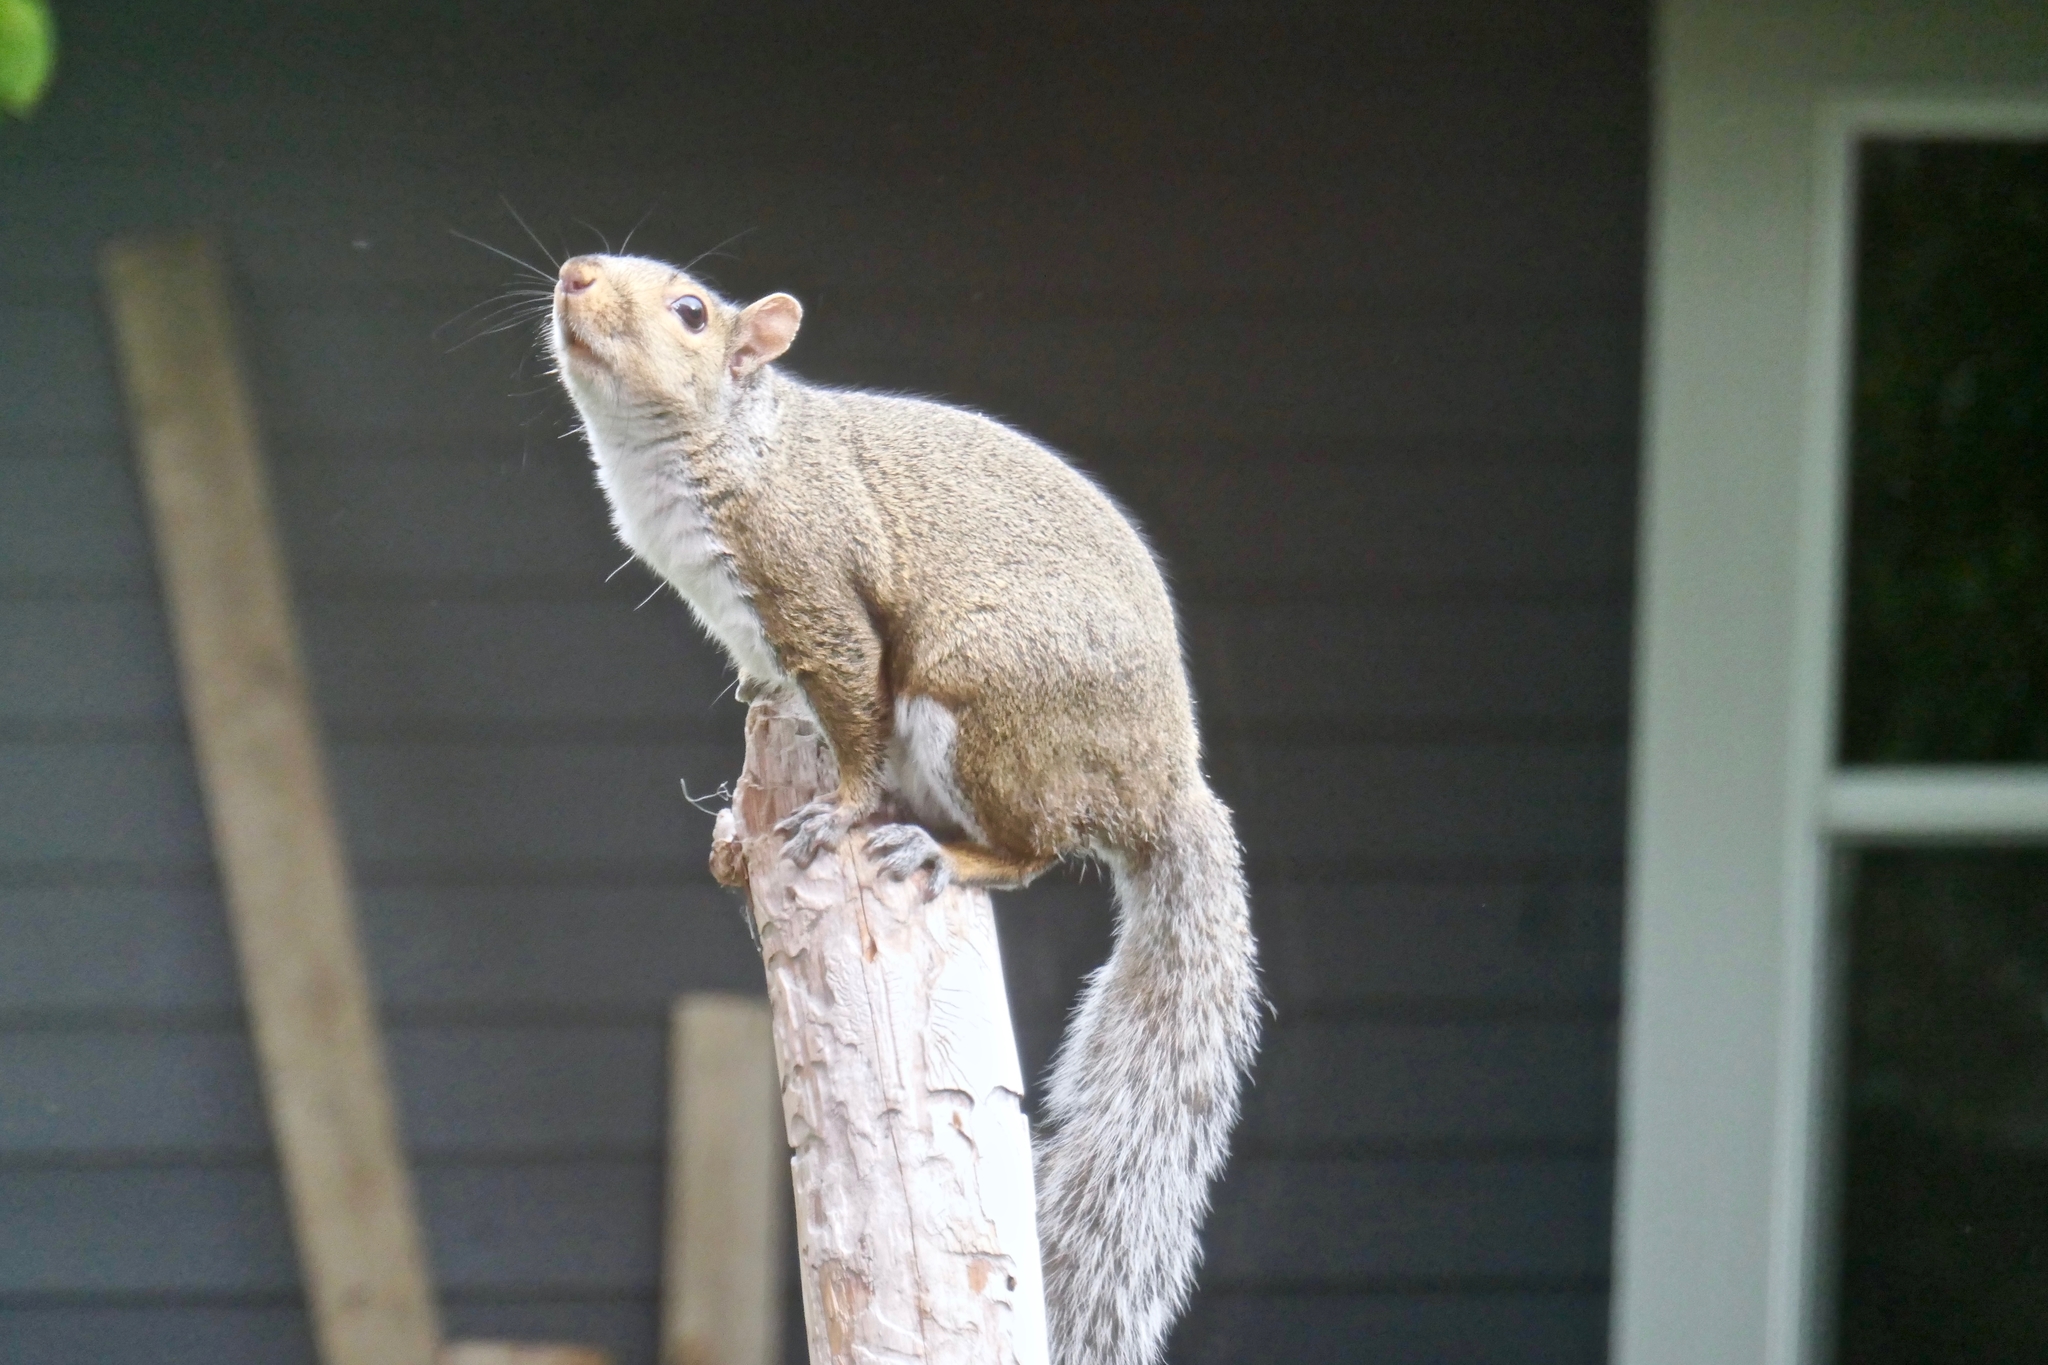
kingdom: Animalia
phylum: Chordata
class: Mammalia
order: Rodentia
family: Sciuridae
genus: Sciurus
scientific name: Sciurus carolinensis
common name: Eastern gray squirrel
